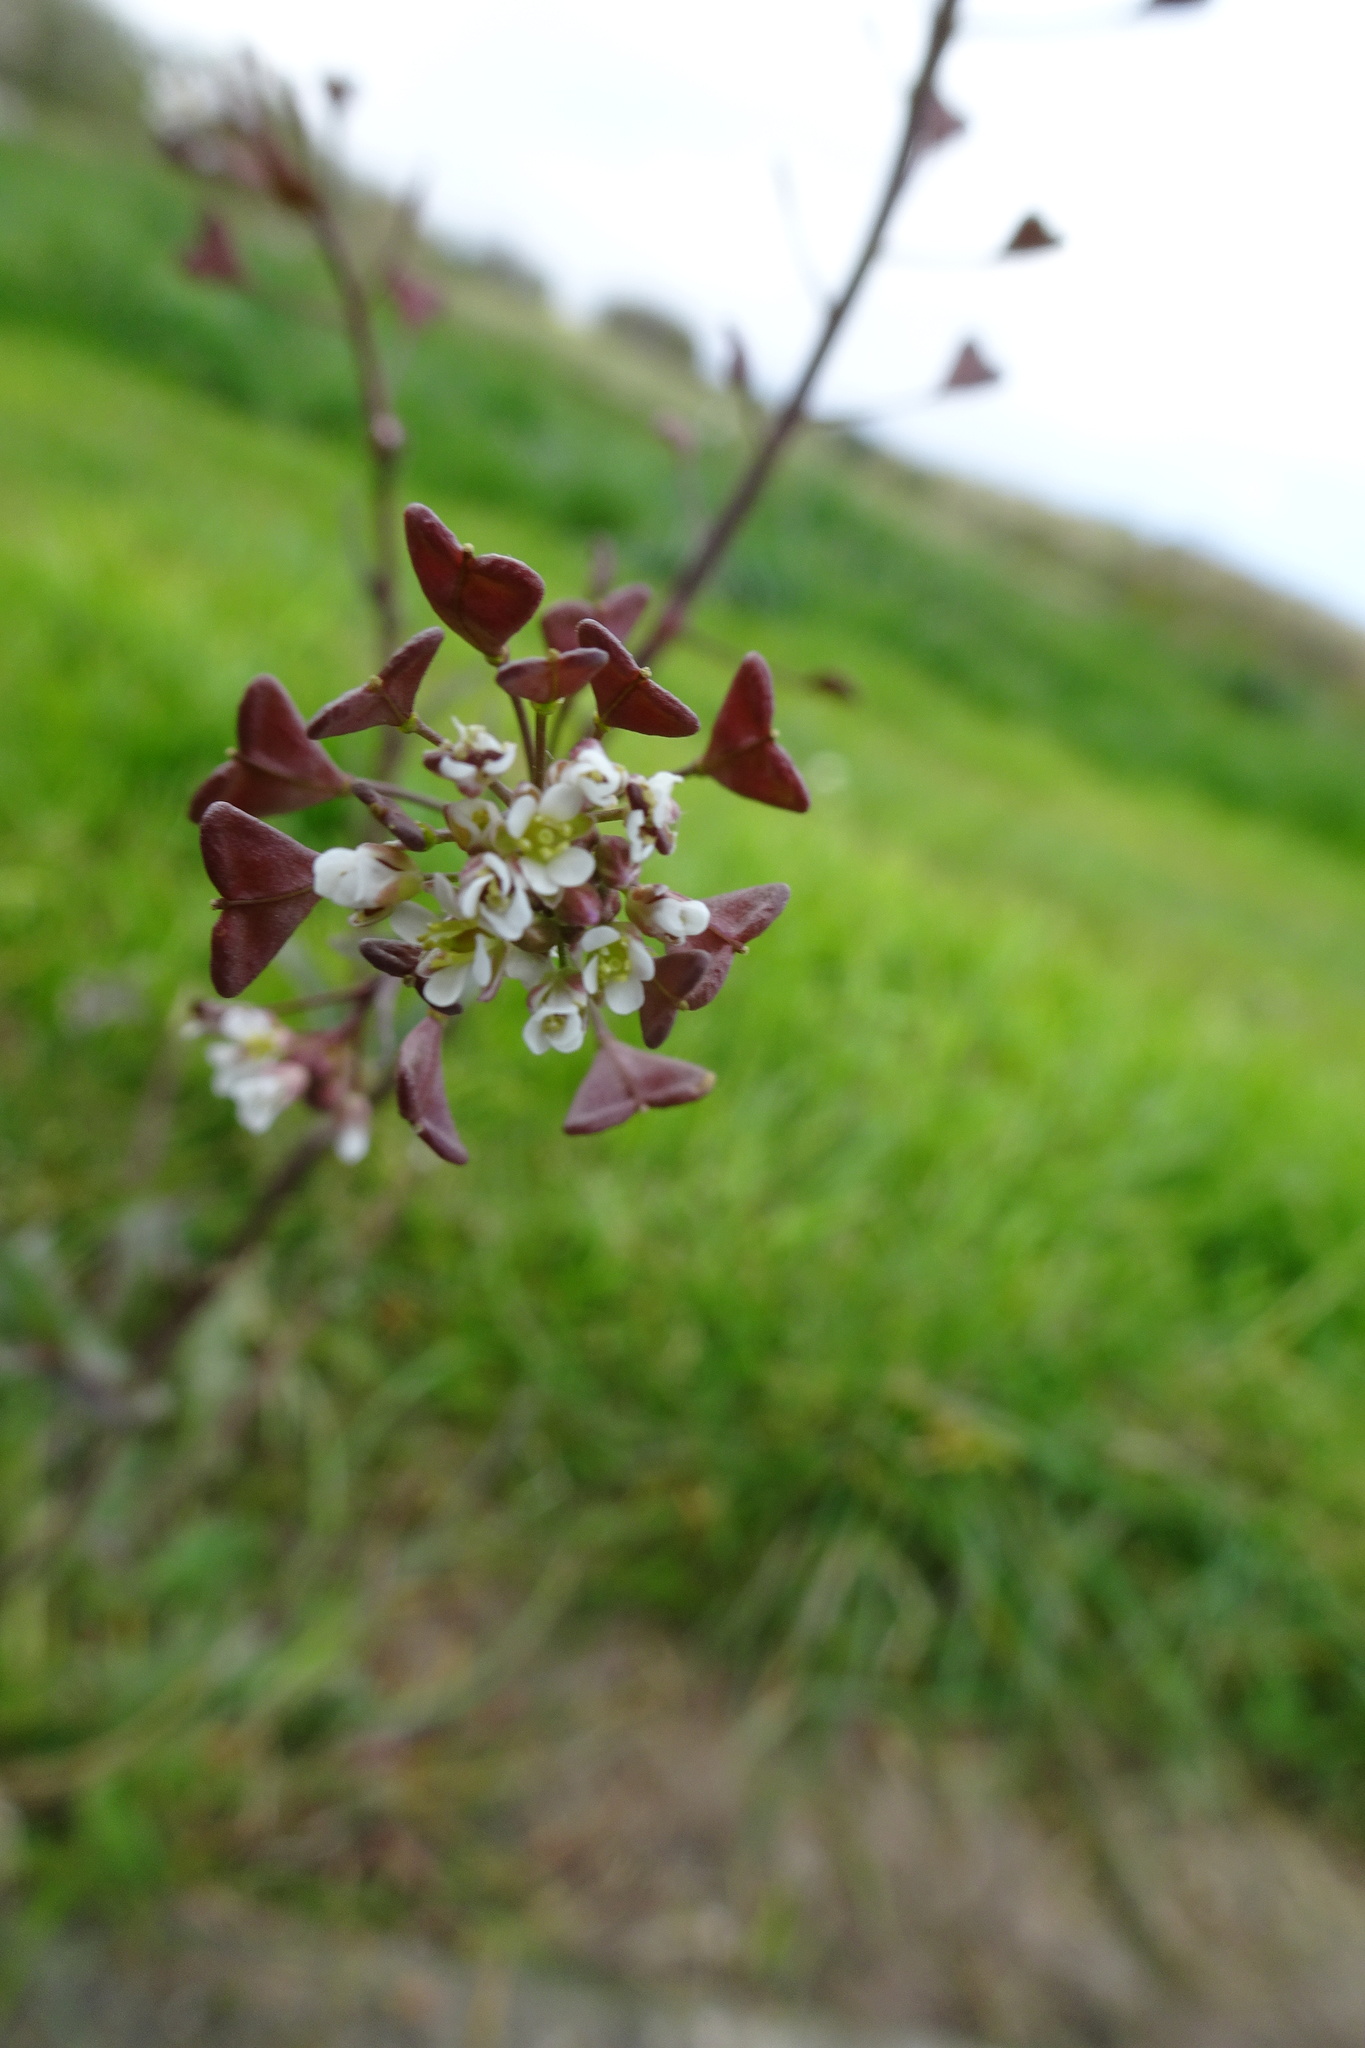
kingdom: Plantae
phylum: Tracheophyta
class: Magnoliopsida
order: Brassicales
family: Brassicaceae
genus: Capsella
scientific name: Capsella bursa-pastoris
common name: Shepherd's purse
